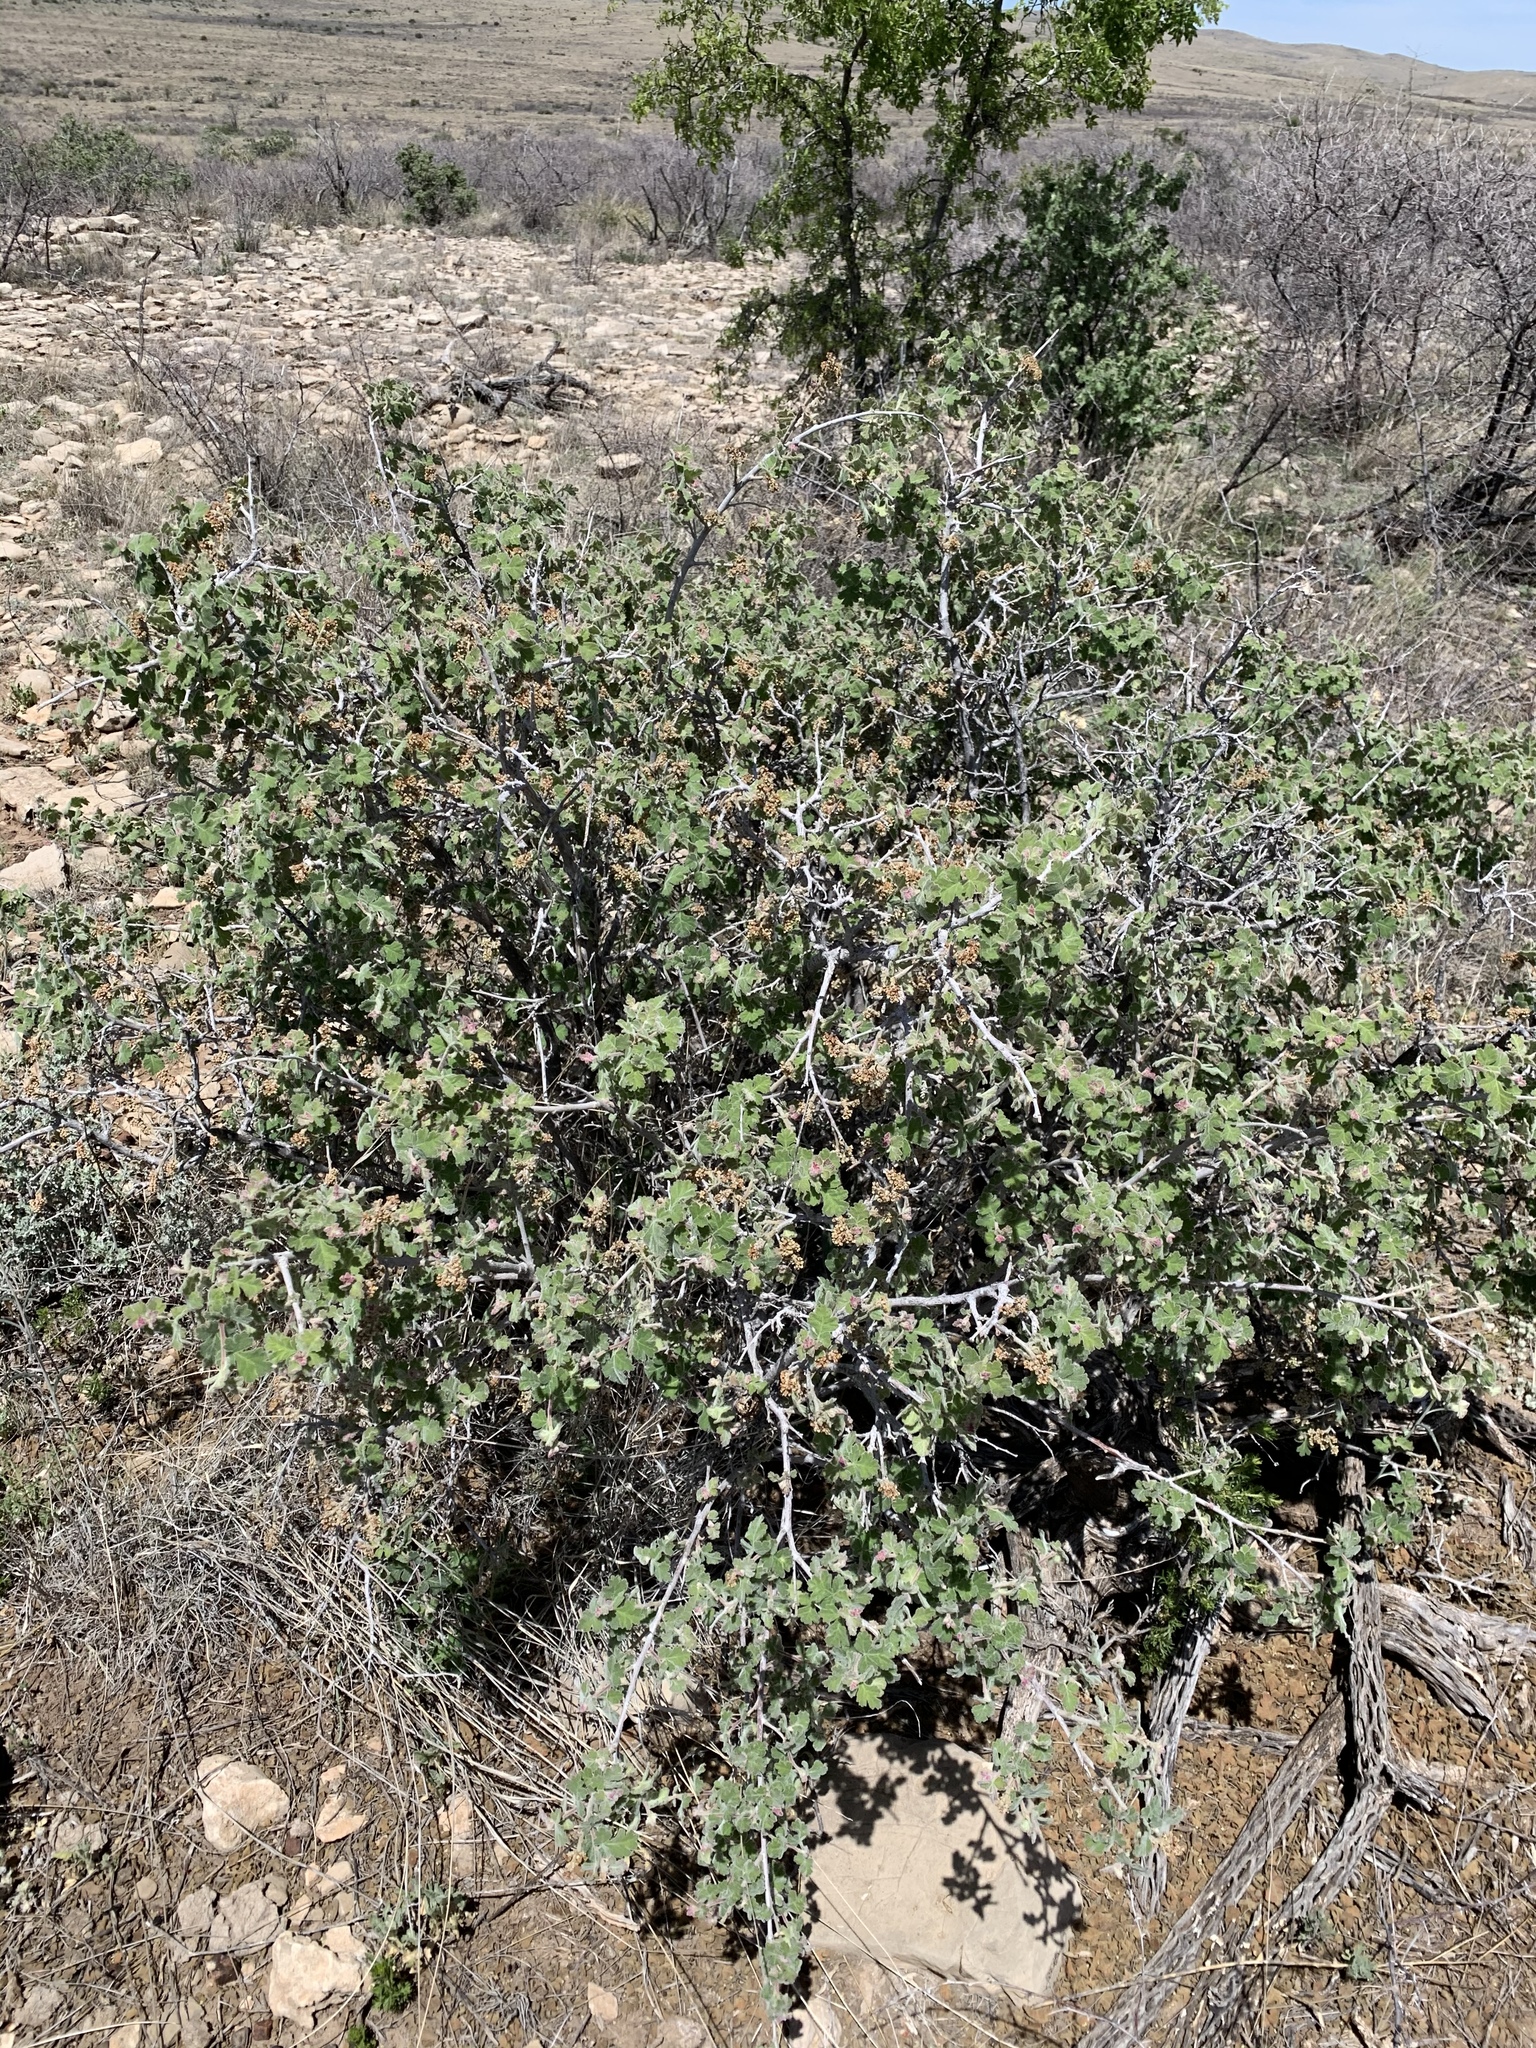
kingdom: Plantae
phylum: Tracheophyta
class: Magnoliopsida
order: Sapindales
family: Anacardiaceae
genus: Rhus
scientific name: Rhus aromatica
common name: Aromatic sumac
